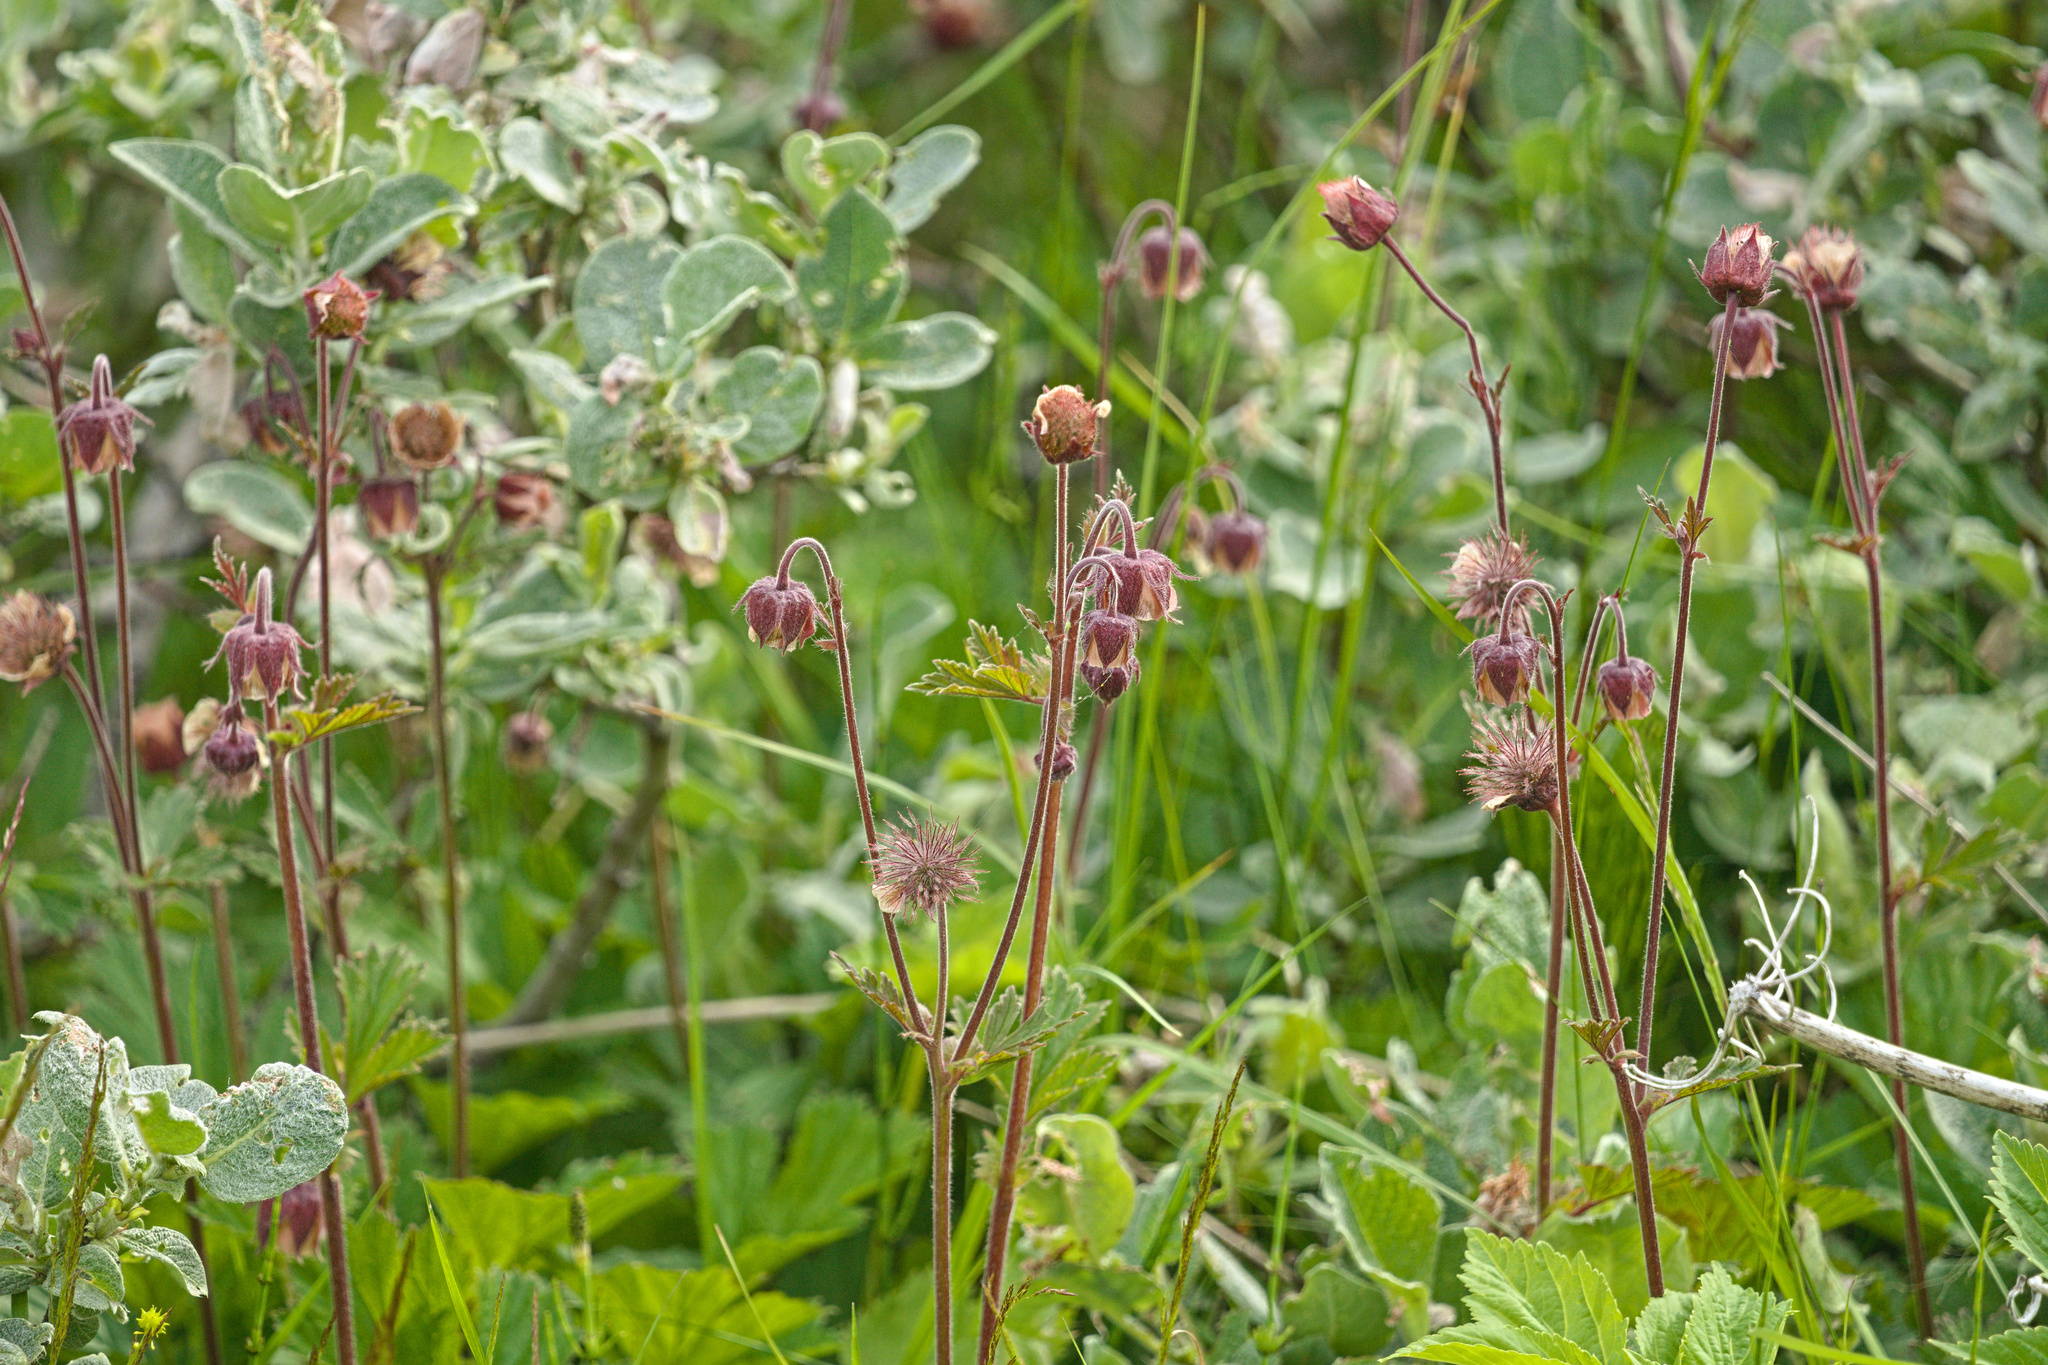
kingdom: Plantae
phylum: Tracheophyta
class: Magnoliopsida
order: Rosales
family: Rosaceae
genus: Geum
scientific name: Geum rivale
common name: Water avens
